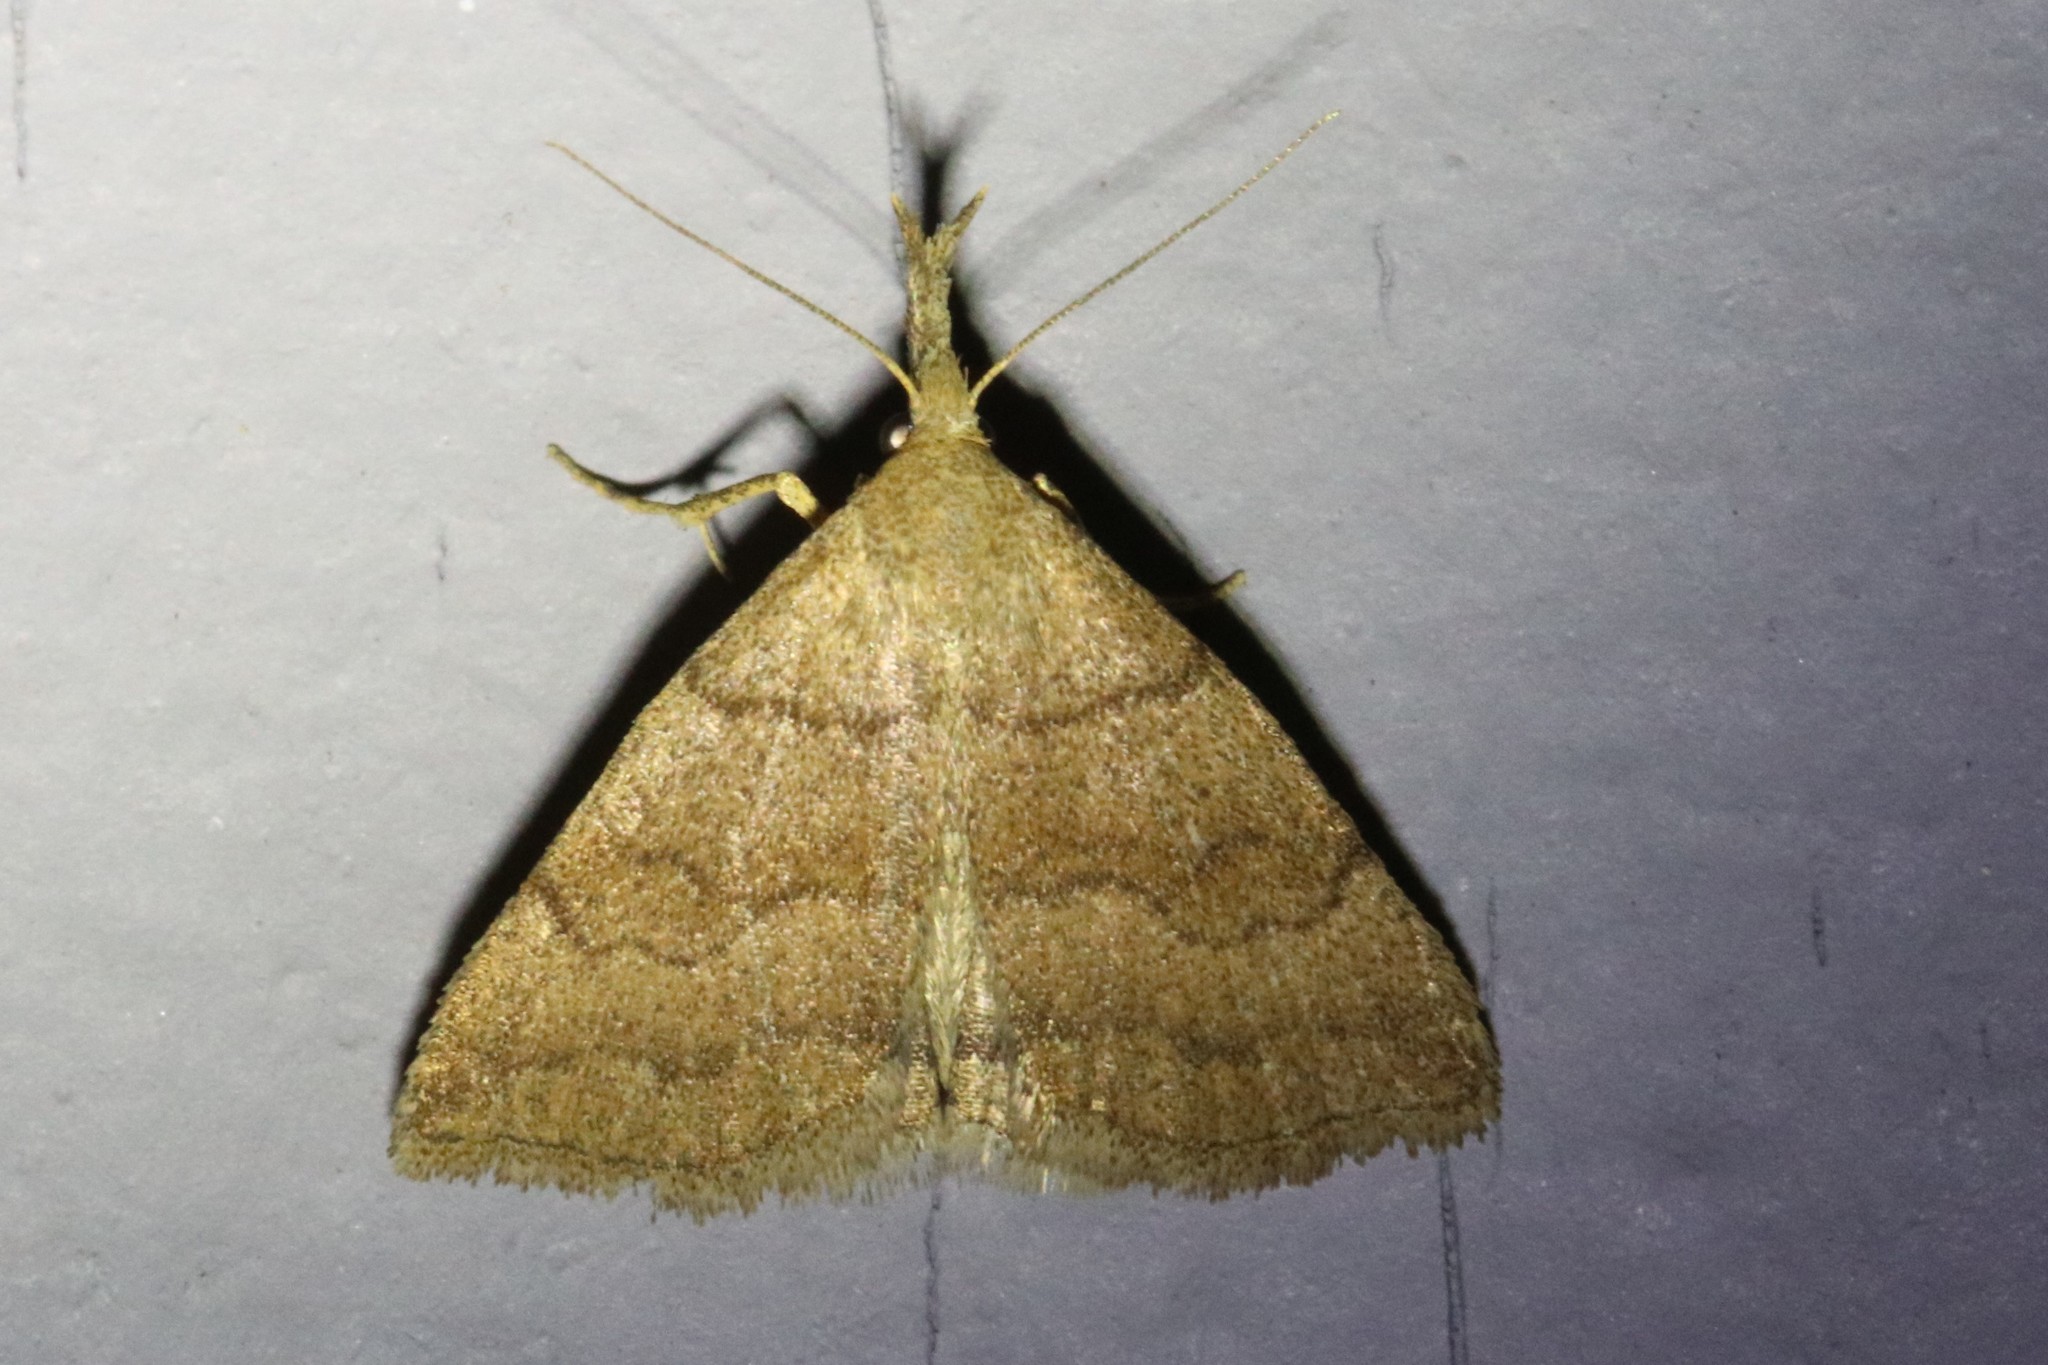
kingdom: Animalia
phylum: Arthropoda
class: Insecta
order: Lepidoptera
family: Erebidae
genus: Phalaenostola
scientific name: Phalaenostola metonalis
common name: Pale phalaenostola moth
